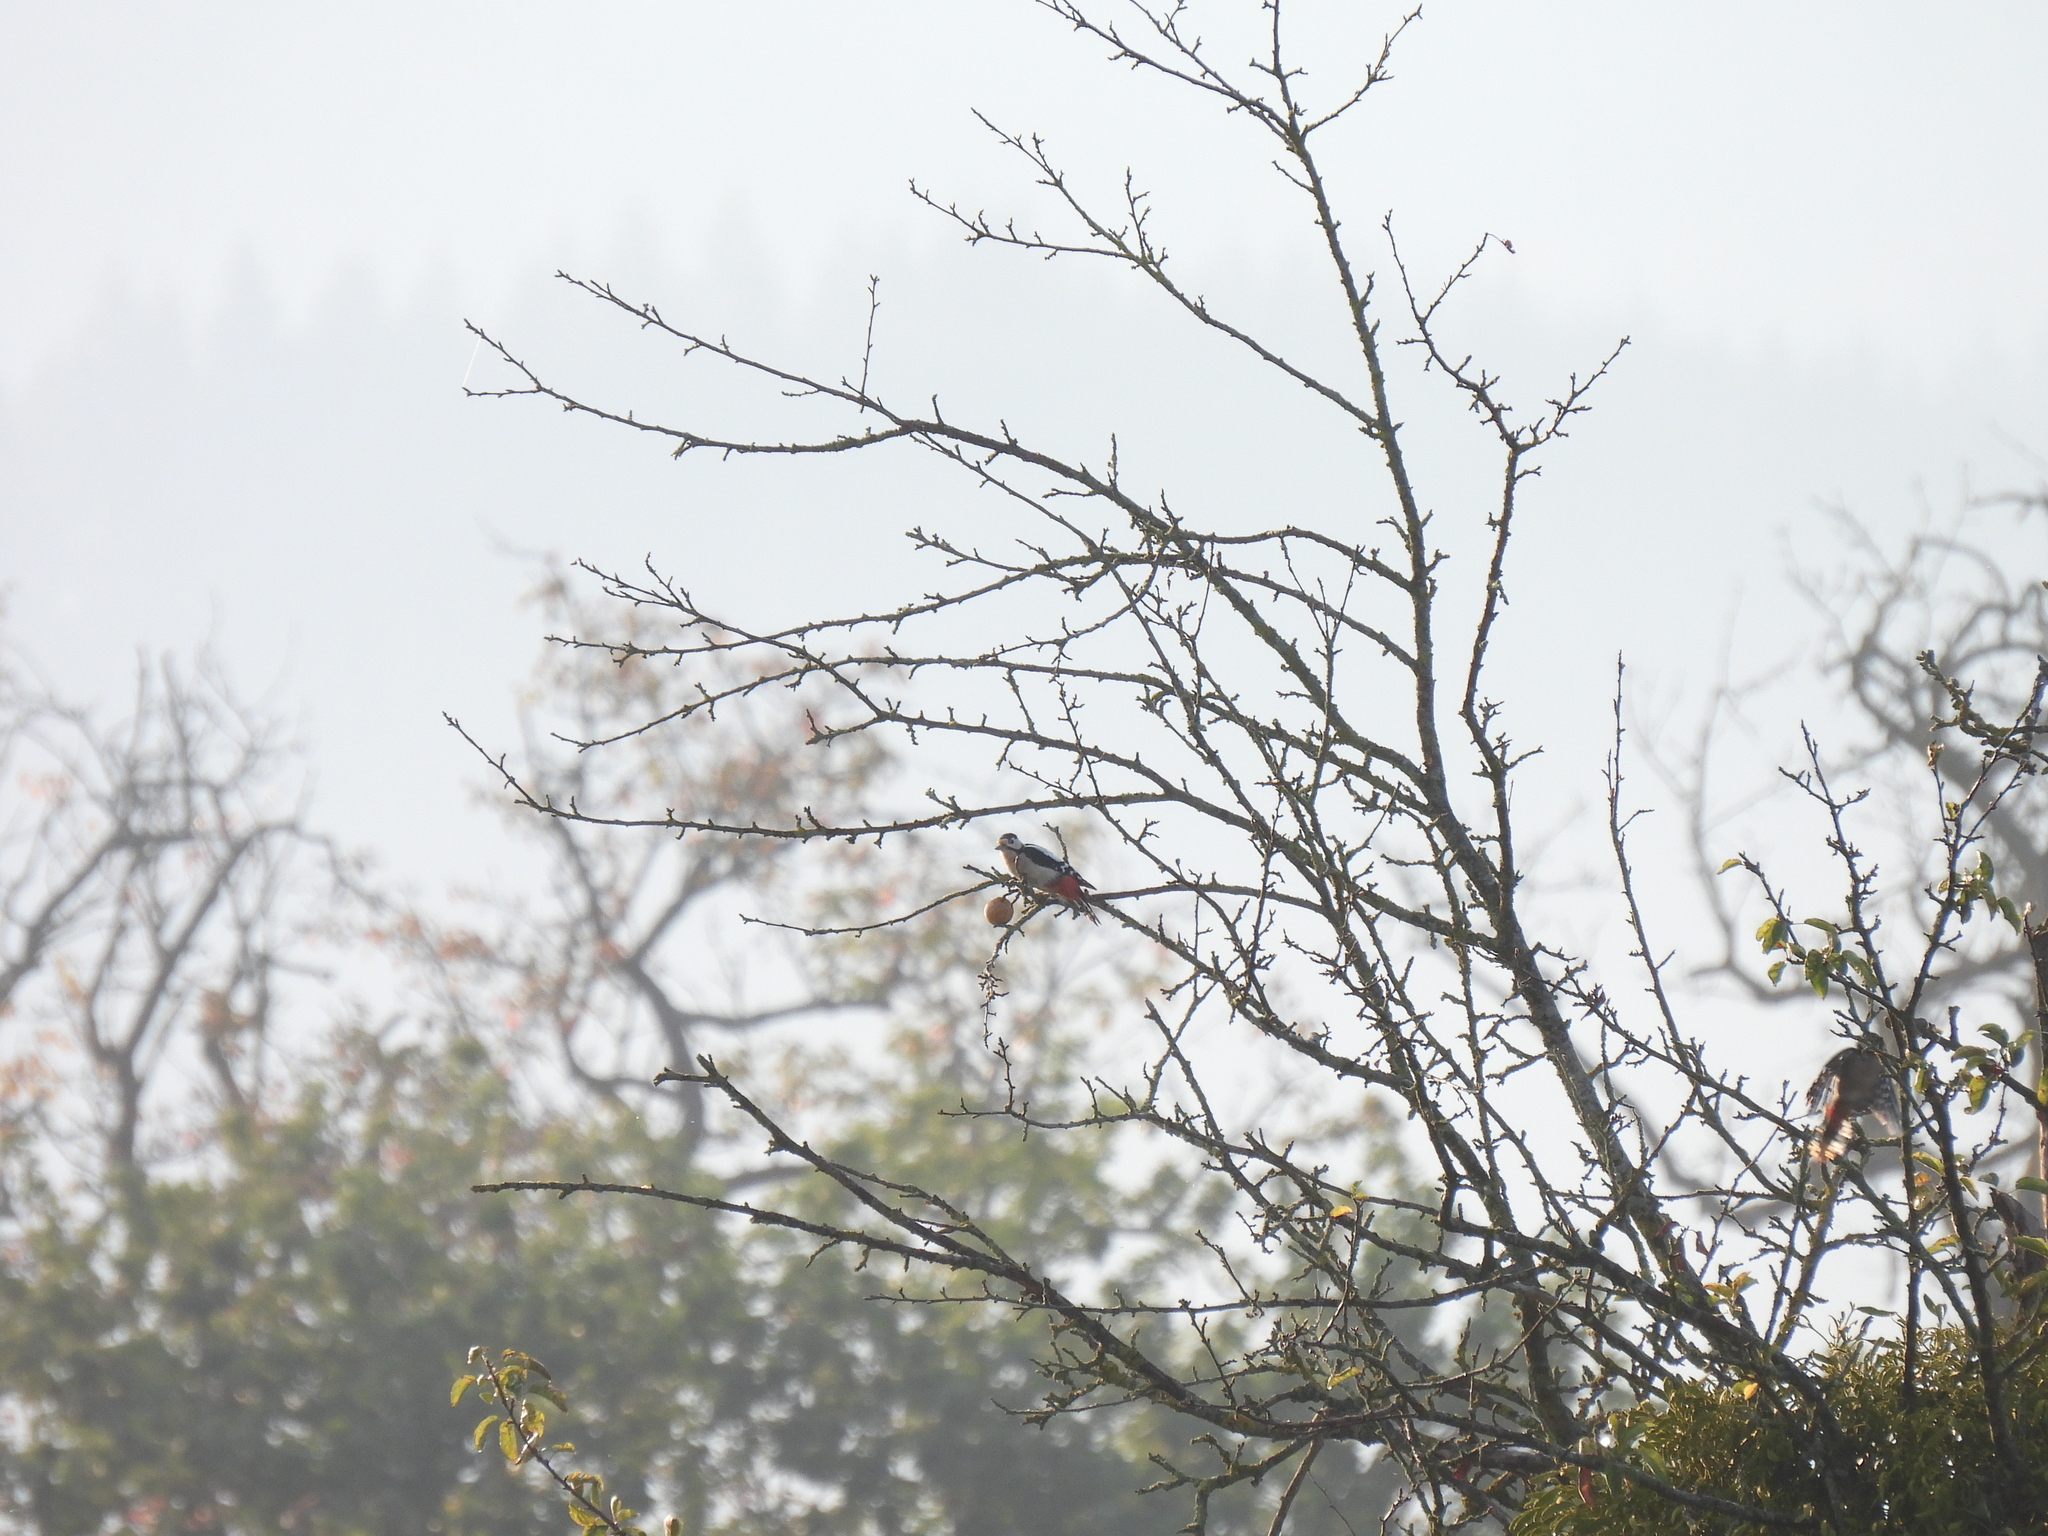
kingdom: Animalia
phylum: Chordata
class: Aves
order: Piciformes
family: Picidae
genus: Dendrocopos
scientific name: Dendrocopos major
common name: Great spotted woodpecker
